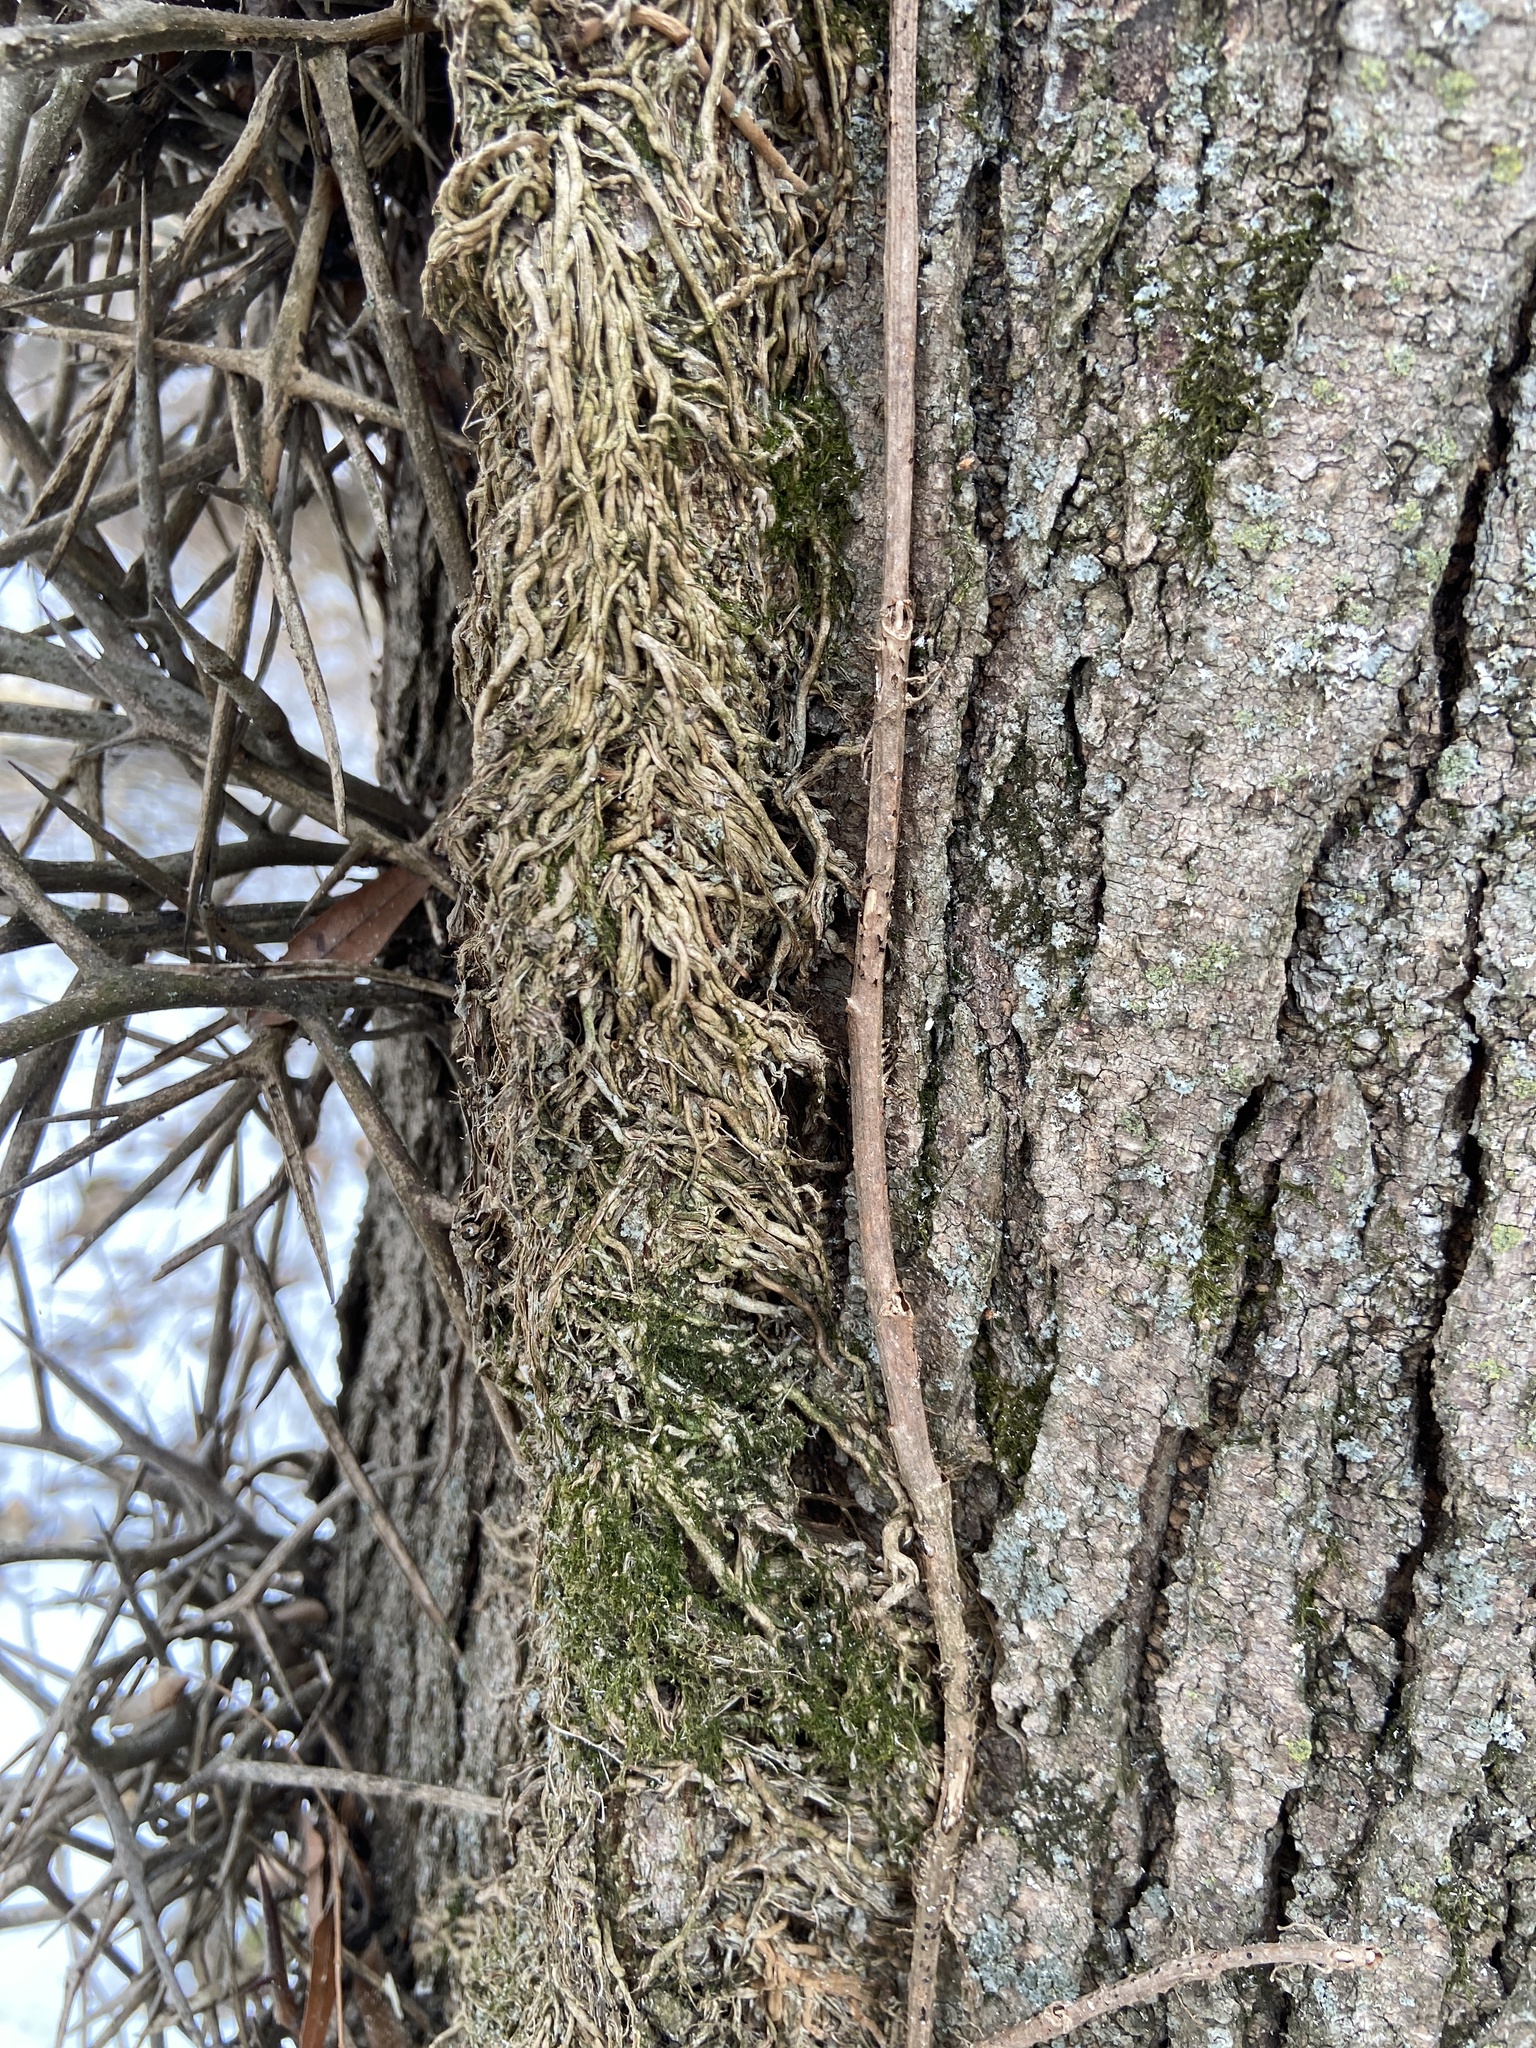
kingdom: Plantae
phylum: Tracheophyta
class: Magnoliopsida
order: Sapindales
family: Anacardiaceae
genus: Toxicodendron
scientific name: Toxicodendron radicans
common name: Poison ivy
